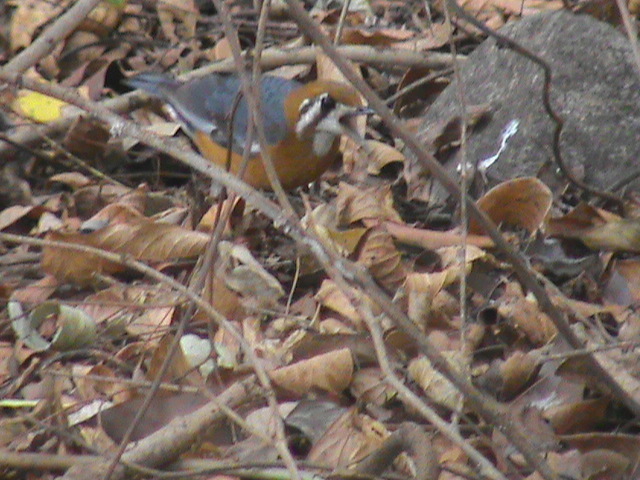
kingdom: Animalia
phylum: Chordata
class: Aves
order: Passeriformes
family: Turdidae
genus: Geokichla
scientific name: Geokichla citrina
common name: Orange-headed thrush
